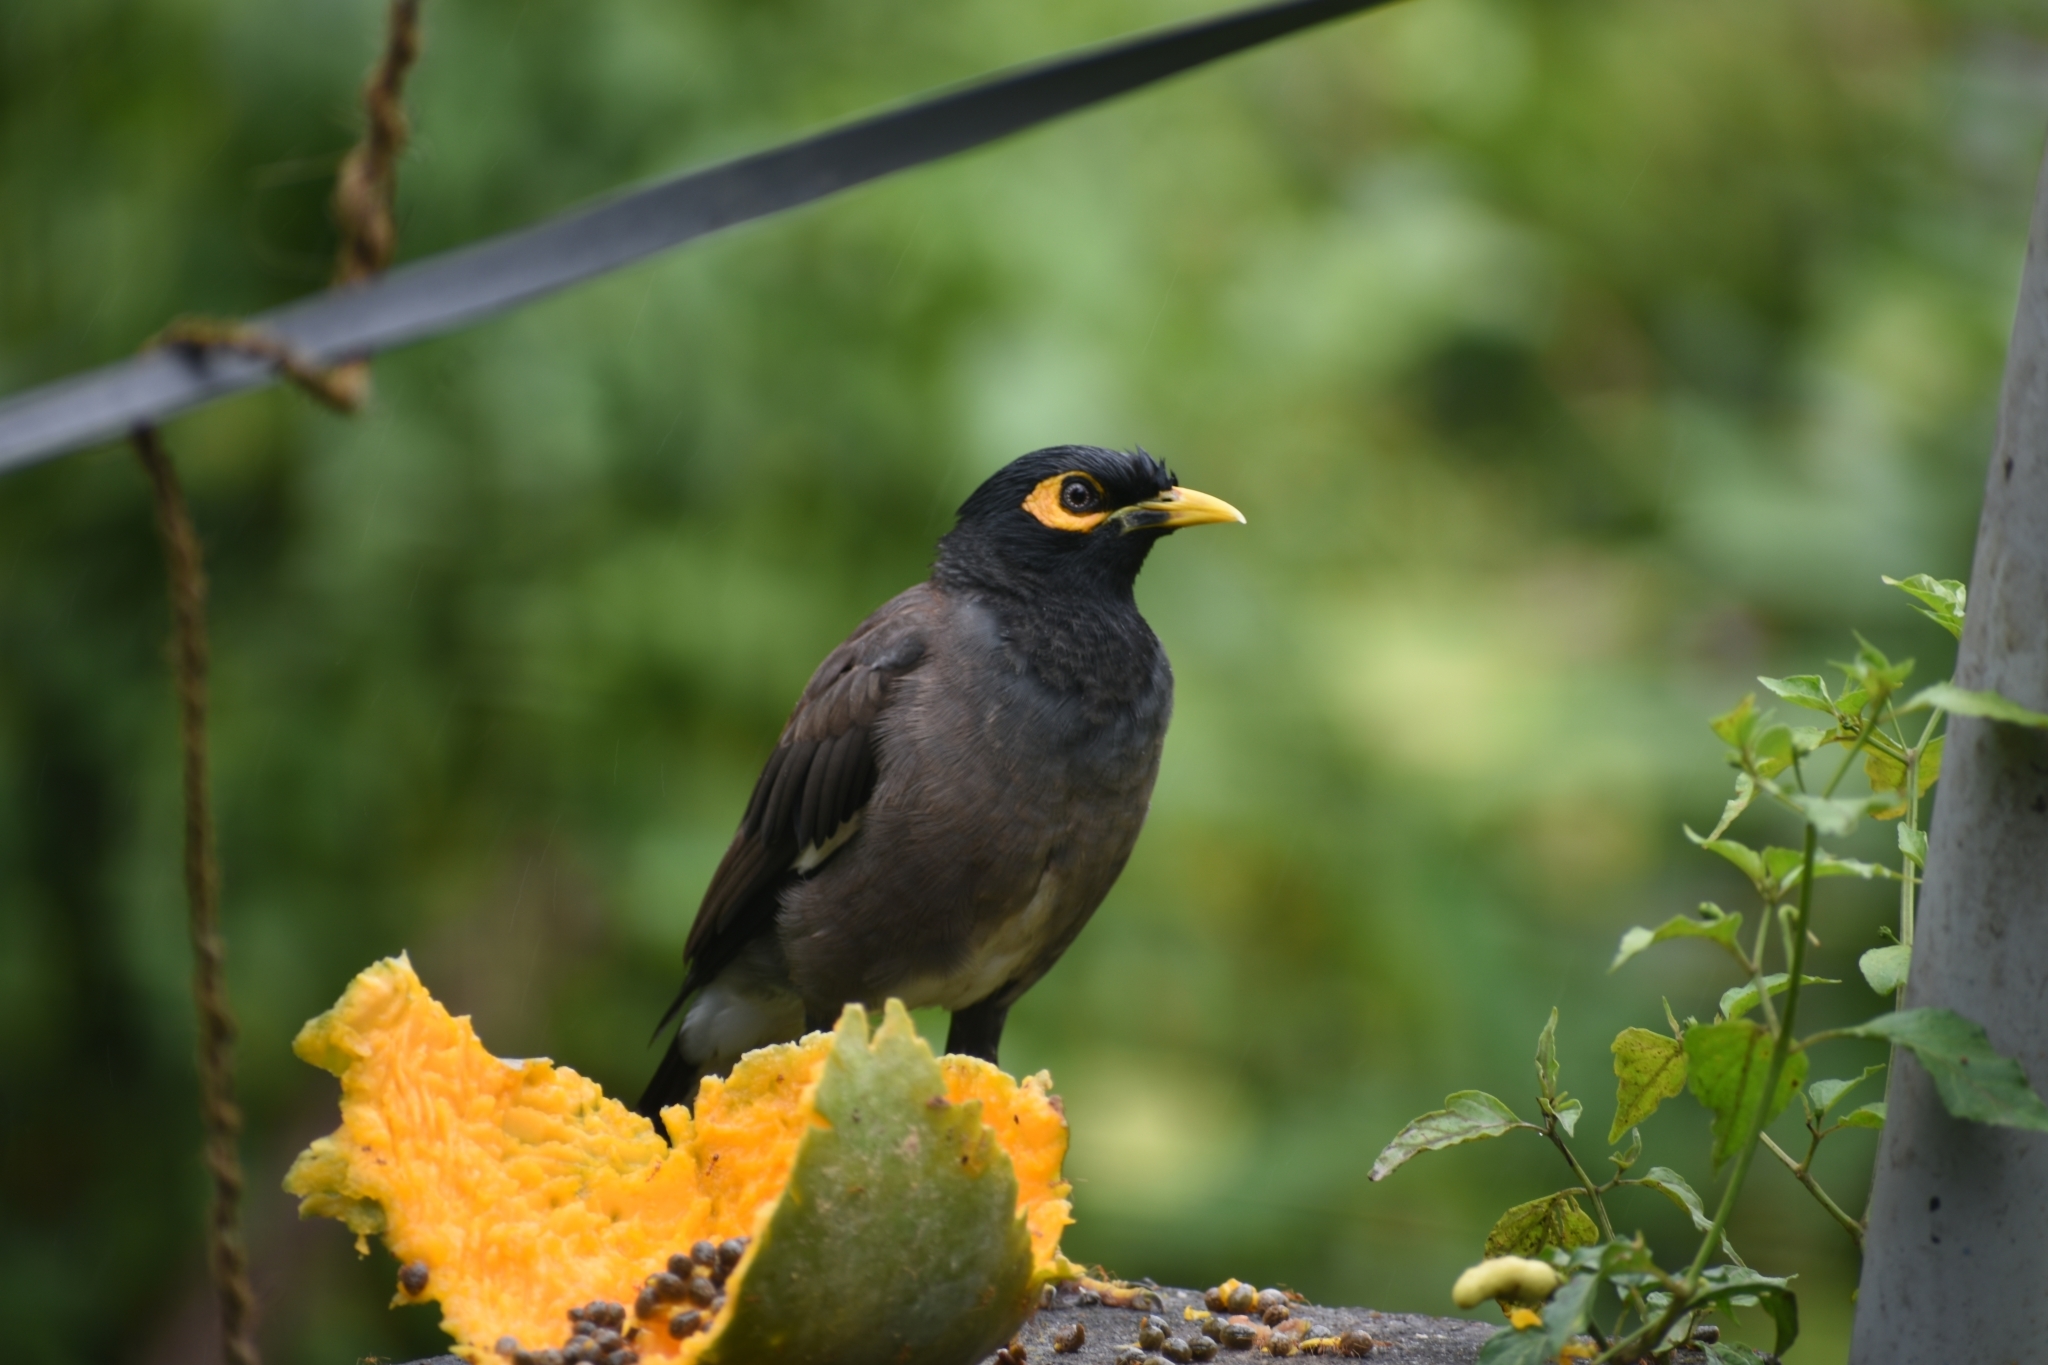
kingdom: Animalia
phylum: Chordata
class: Aves
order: Passeriformes
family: Sturnidae
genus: Acridotheres
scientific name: Acridotheres tristis
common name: Common myna
